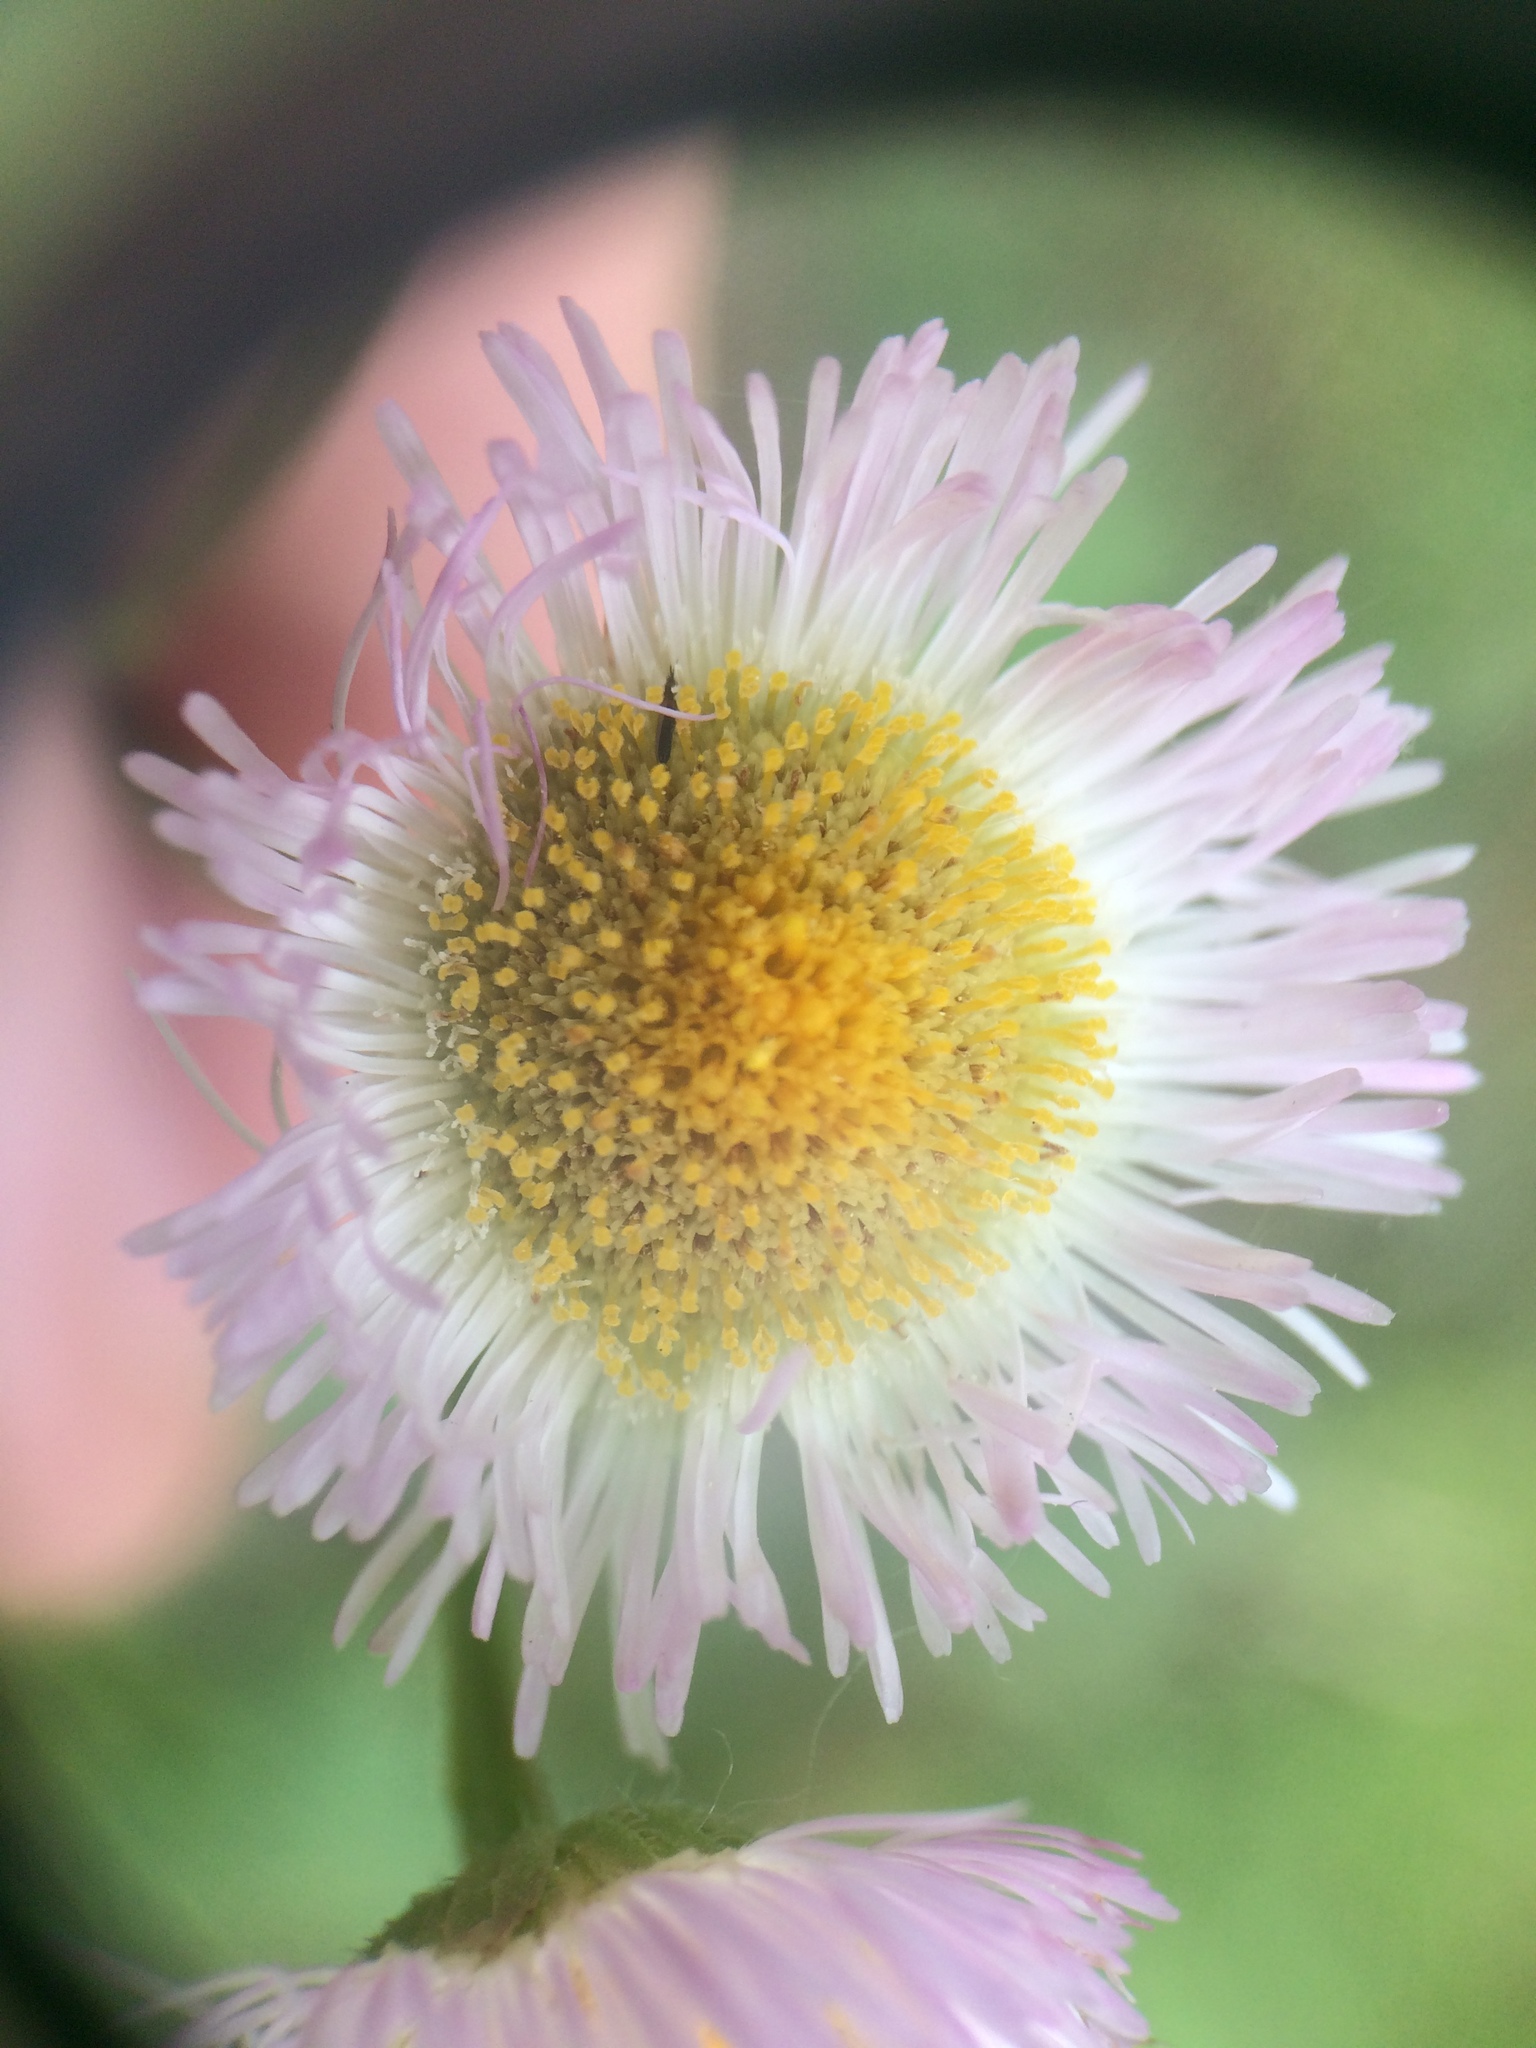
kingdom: Plantae
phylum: Tracheophyta
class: Magnoliopsida
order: Asterales
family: Asteraceae
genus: Erigeron
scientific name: Erigeron philadelphicus
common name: Robin's-plantain
